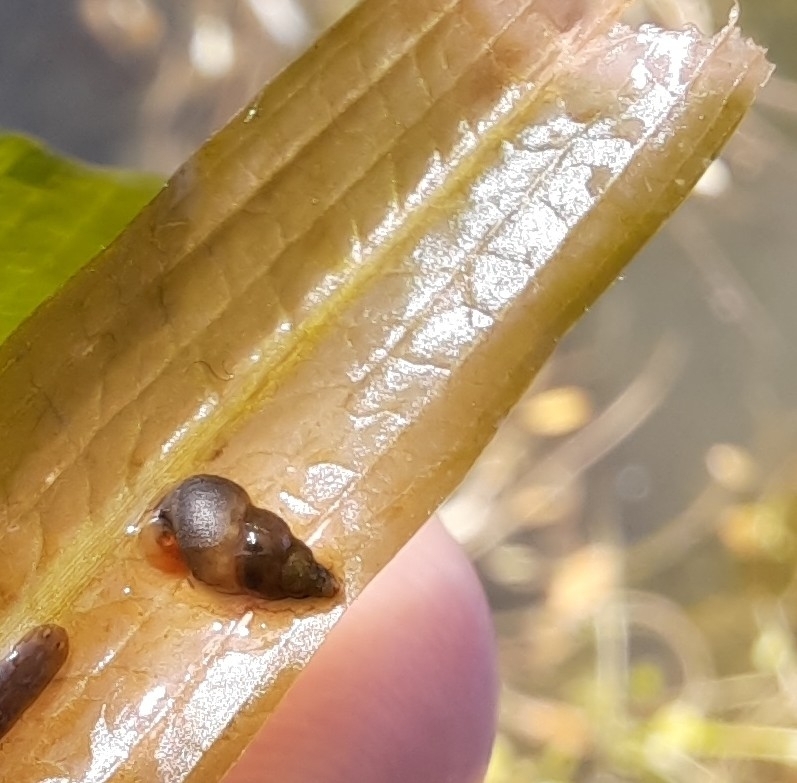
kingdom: Animalia
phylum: Mollusca
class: Gastropoda
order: Littorinimorpha
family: Tateidae
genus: Potamopyrgus
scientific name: Potamopyrgus antipodarum
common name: Jenkins' spire snail
